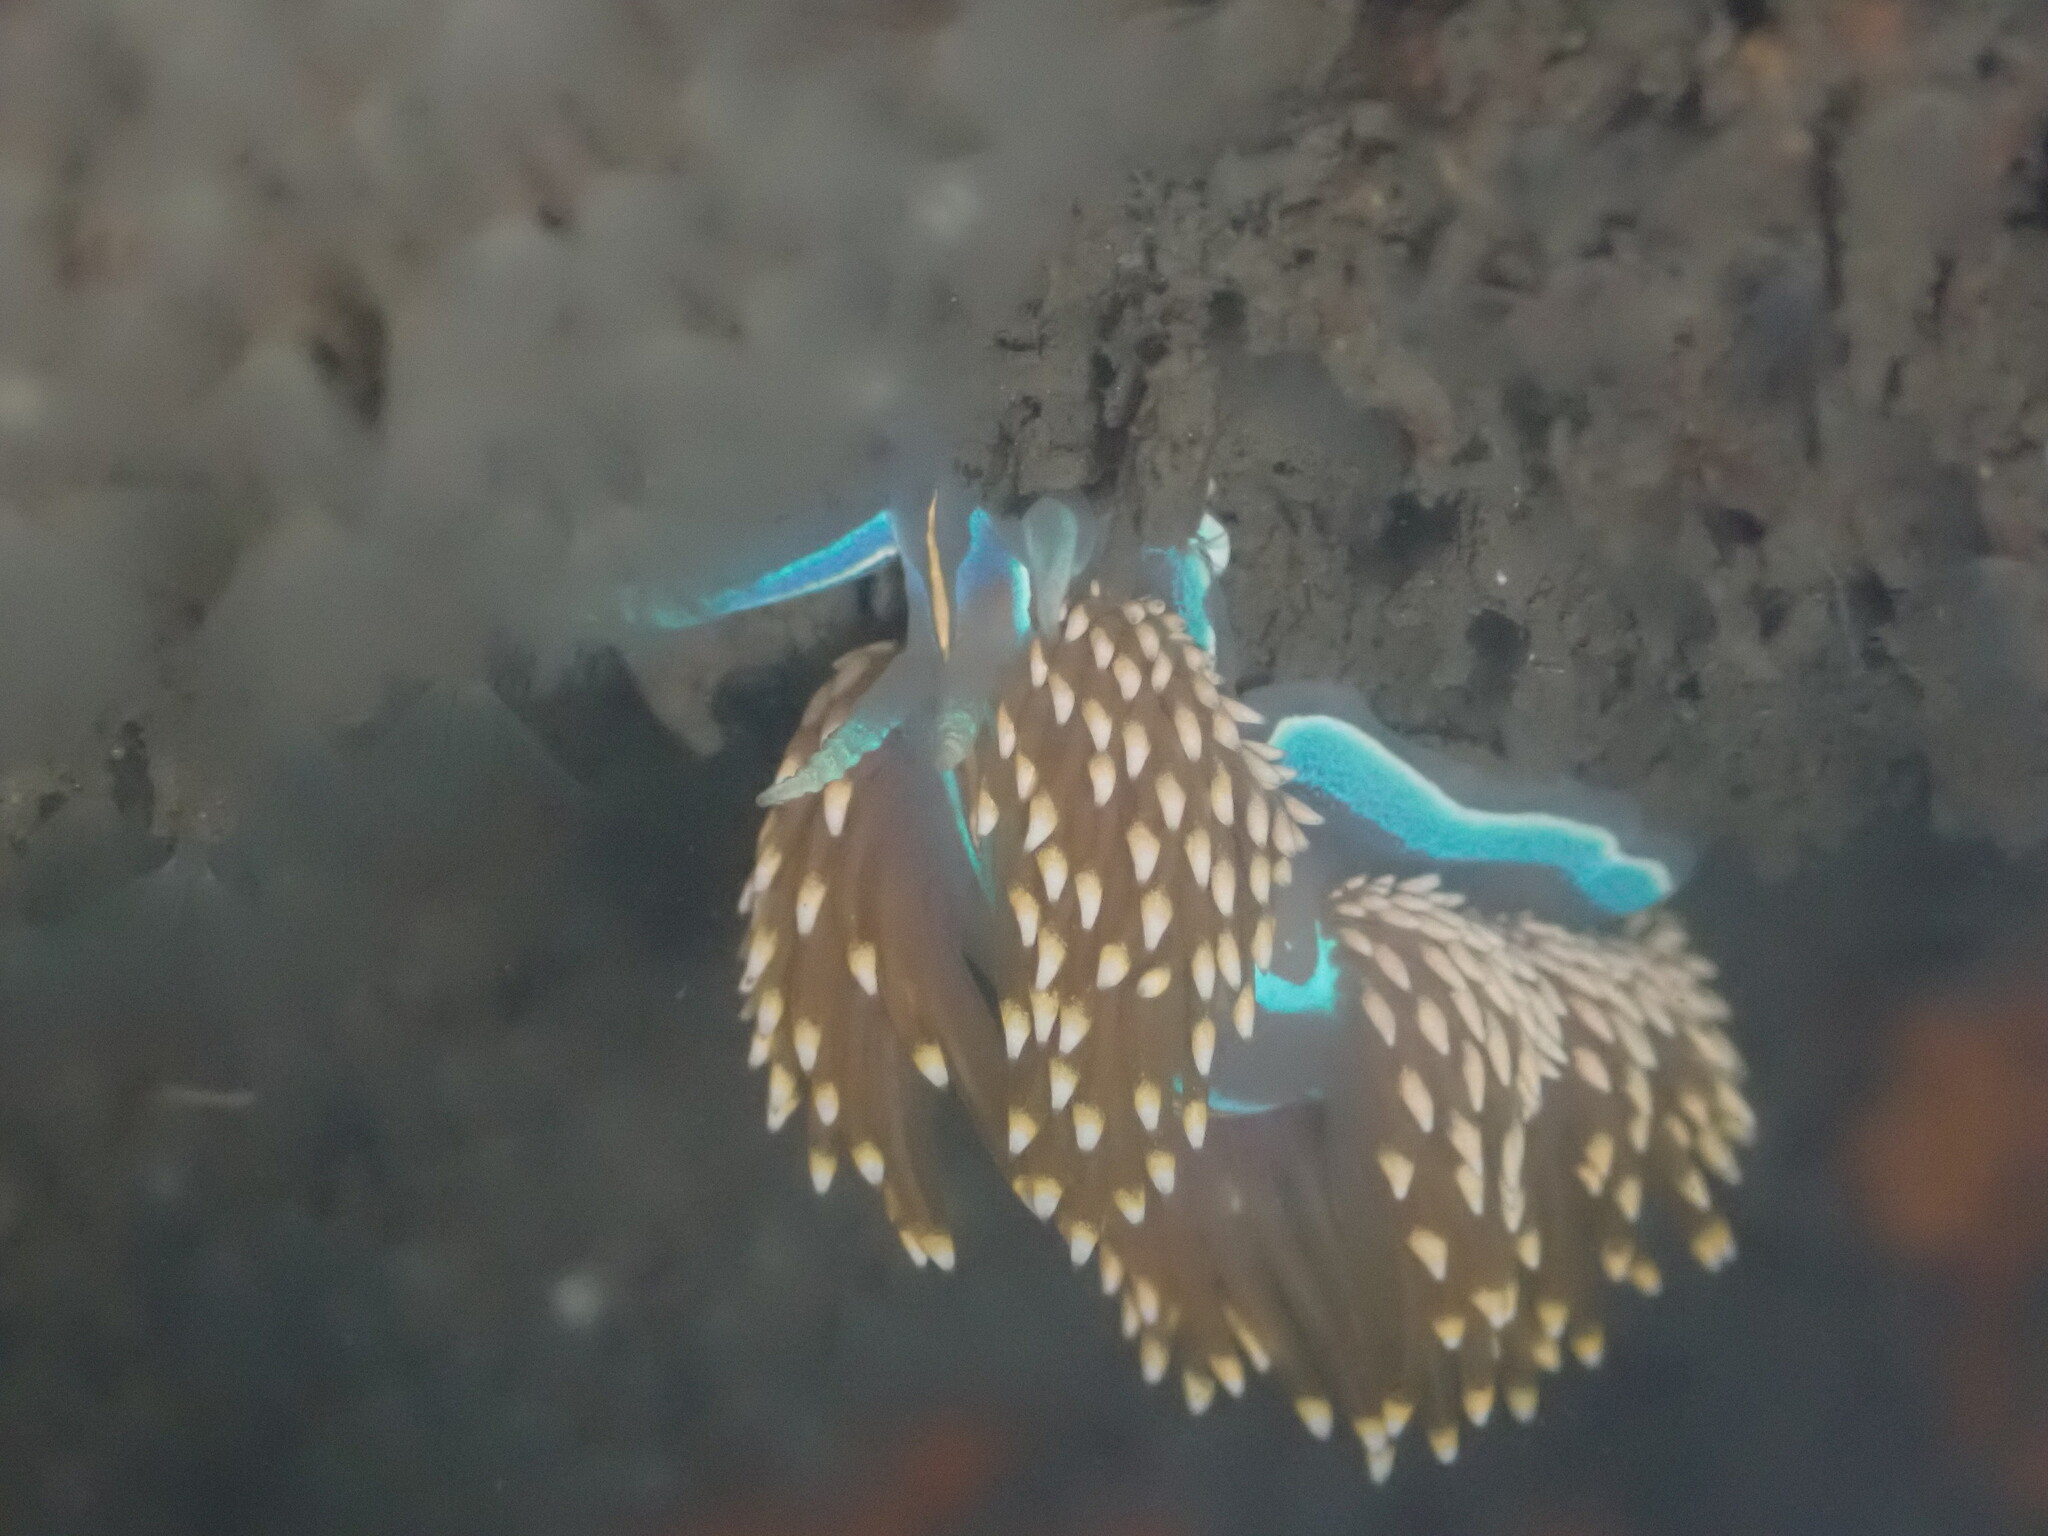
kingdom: Animalia
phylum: Mollusca
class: Gastropoda
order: Nudibranchia
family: Myrrhinidae
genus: Hermissenda
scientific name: Hermissenda opalescens
